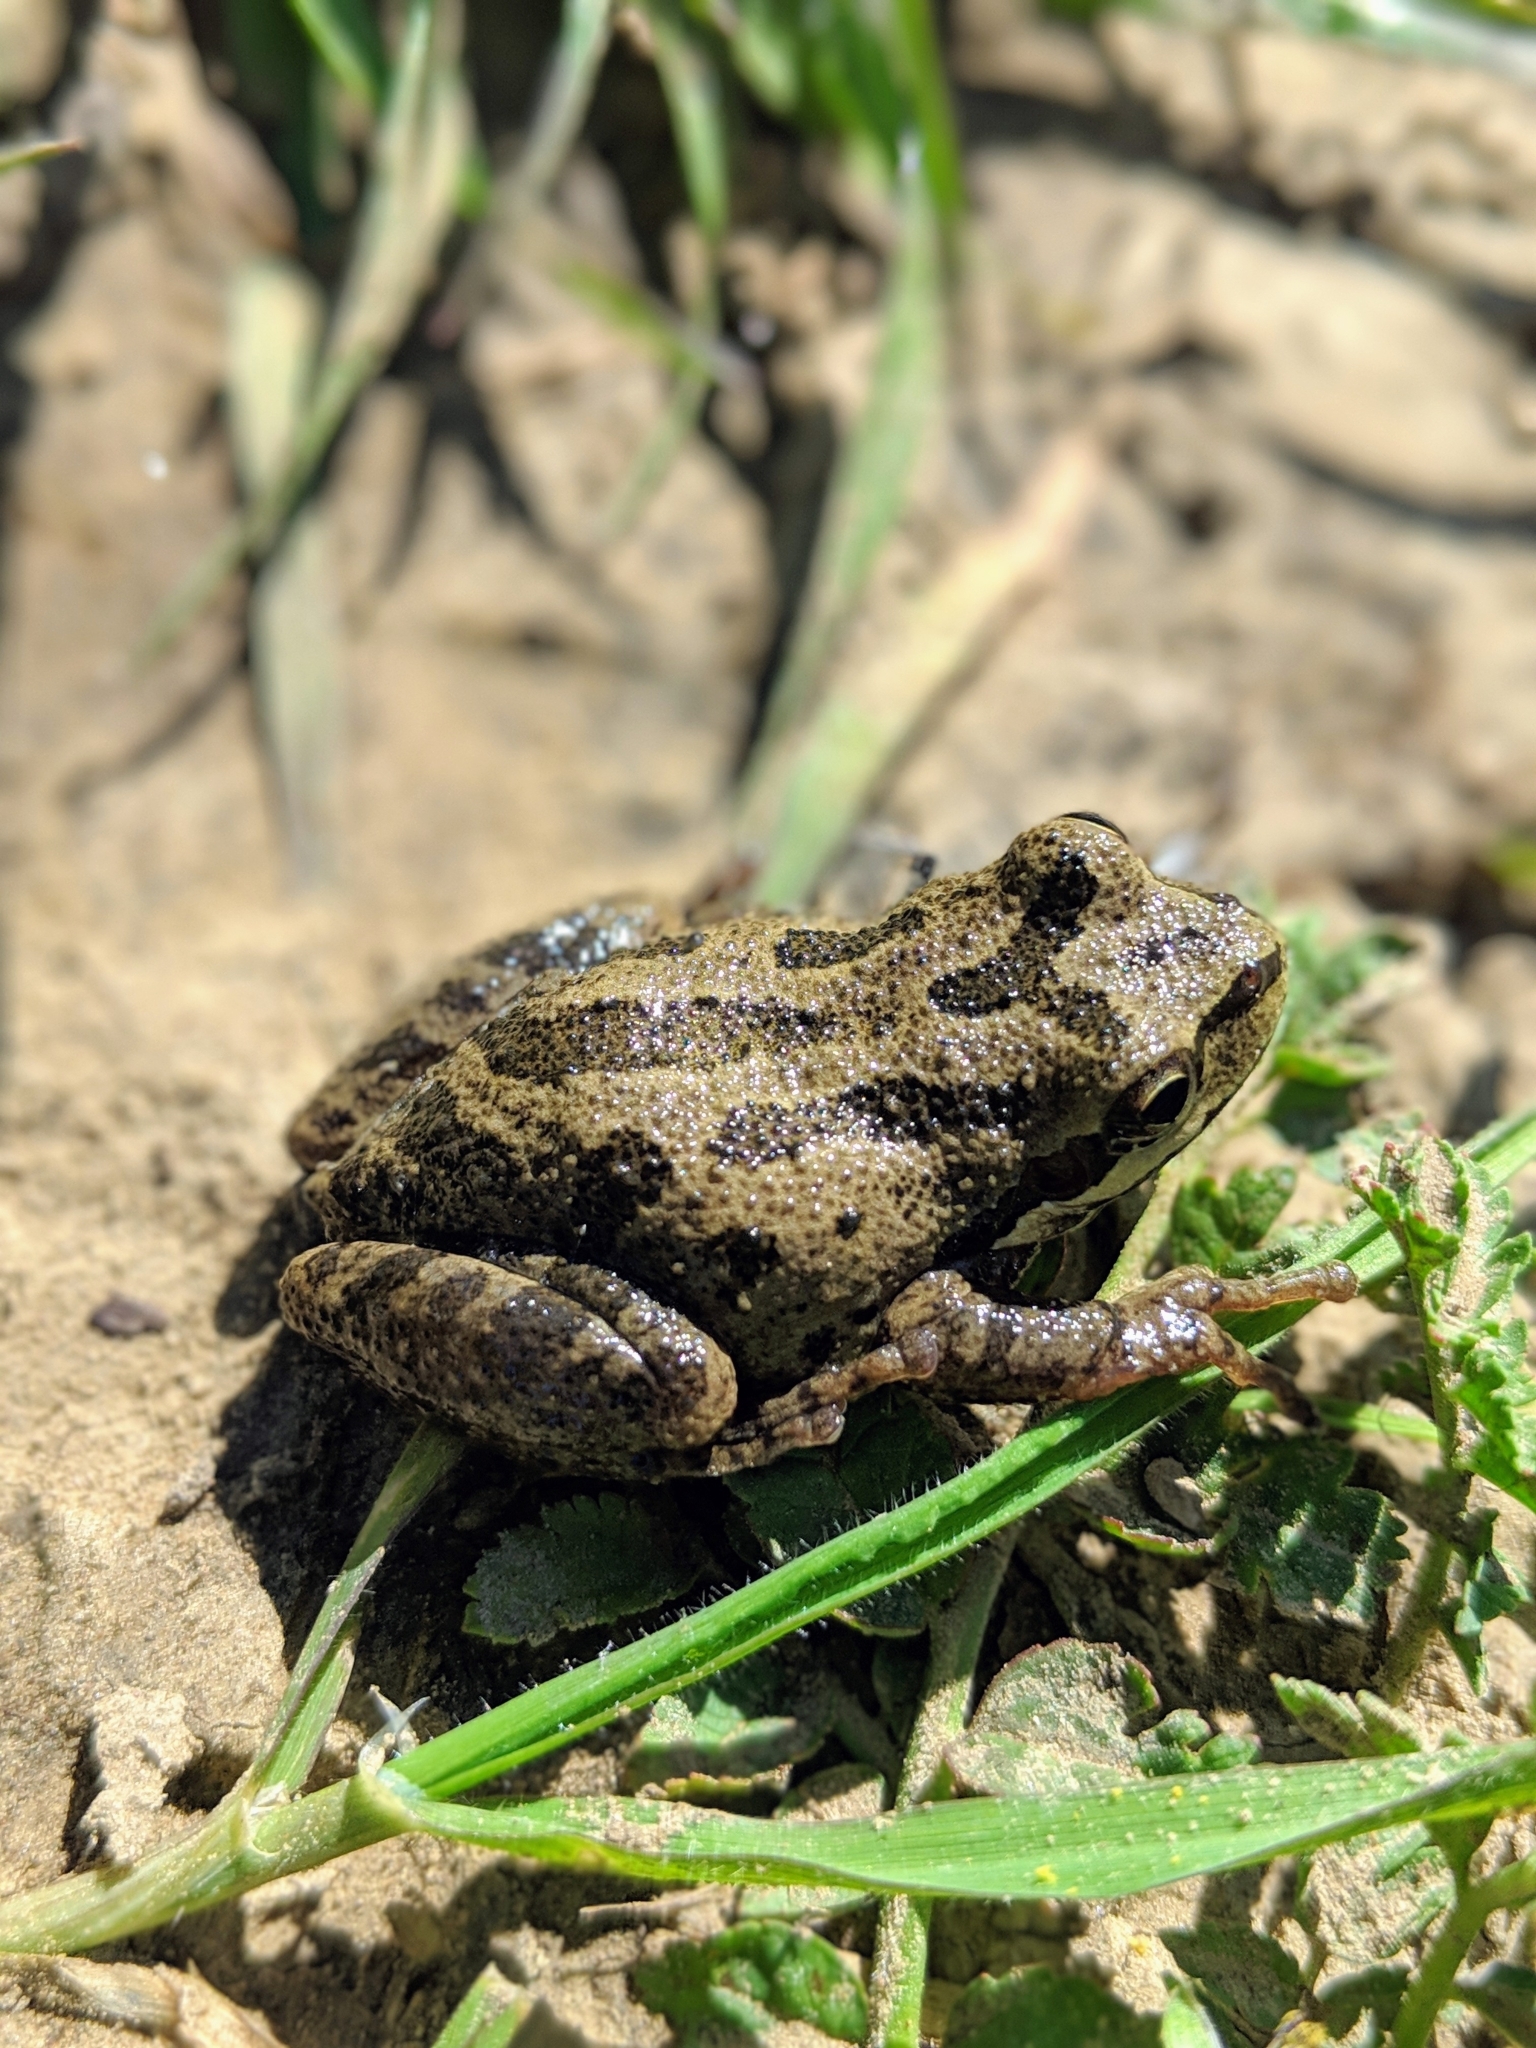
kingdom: Animalia
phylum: Chordata
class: Amphibia
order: Anura
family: Hylidae
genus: Pseudacris
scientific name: Pseudacris regilla
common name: Pacific chorus frog
